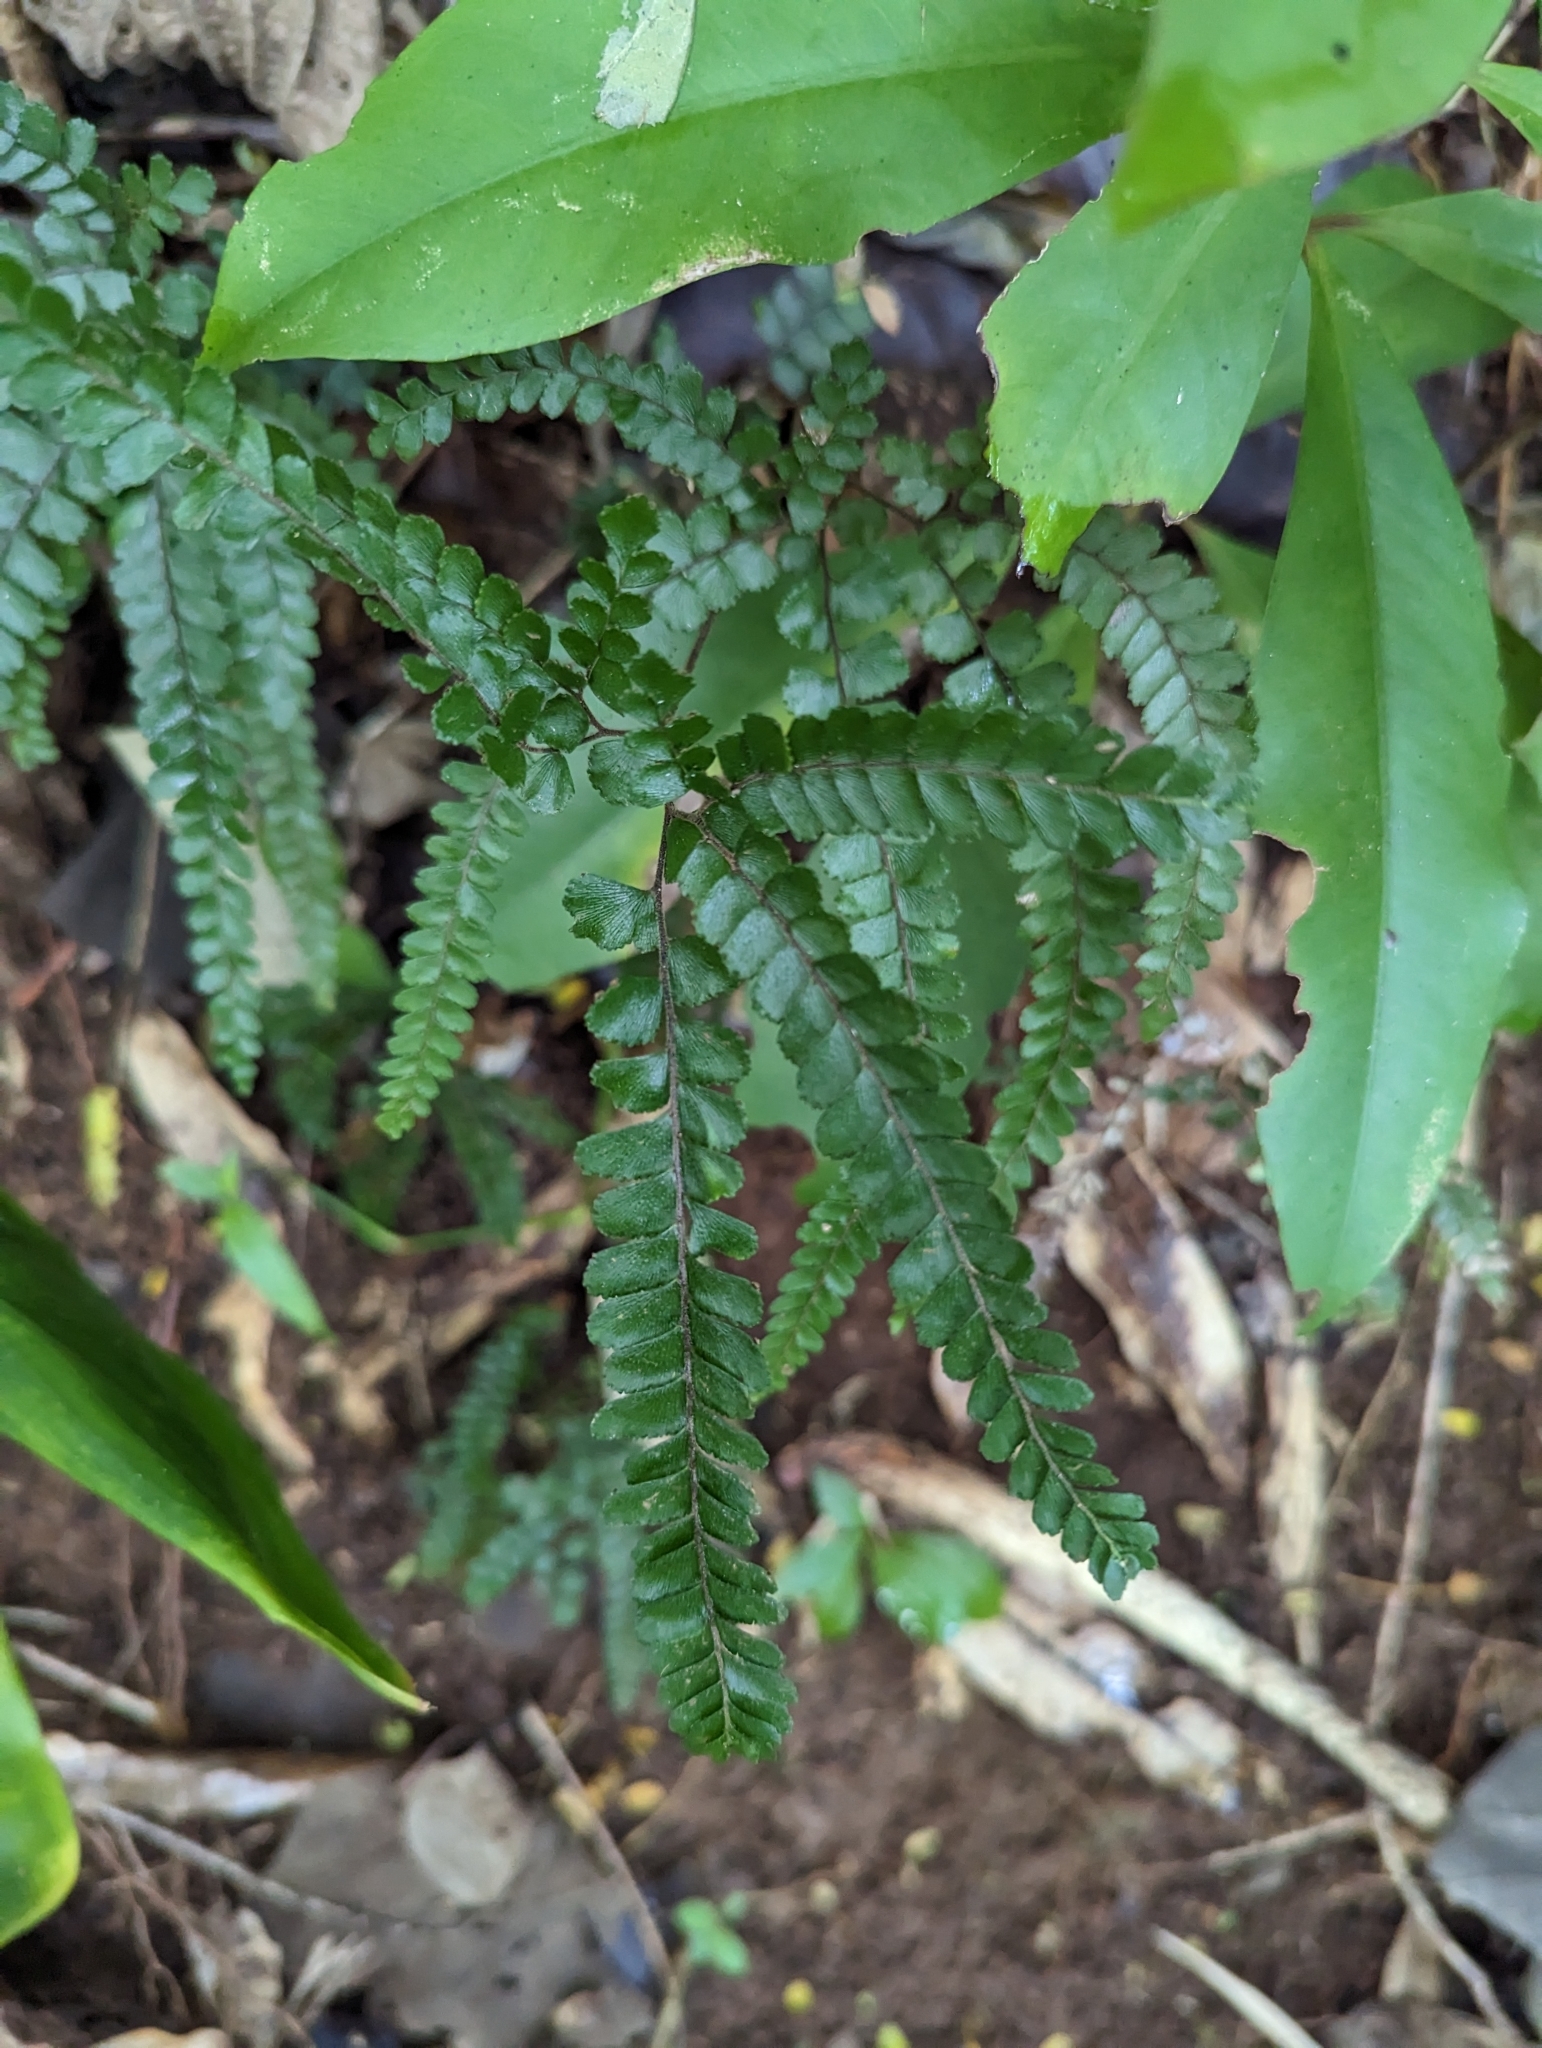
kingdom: Plantae
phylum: Tracheophyta
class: Polypodiopsida
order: Polypodiales
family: Pteridaceae
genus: Adiantum
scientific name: Adiantum hispidulum
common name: Rough maidenhair
